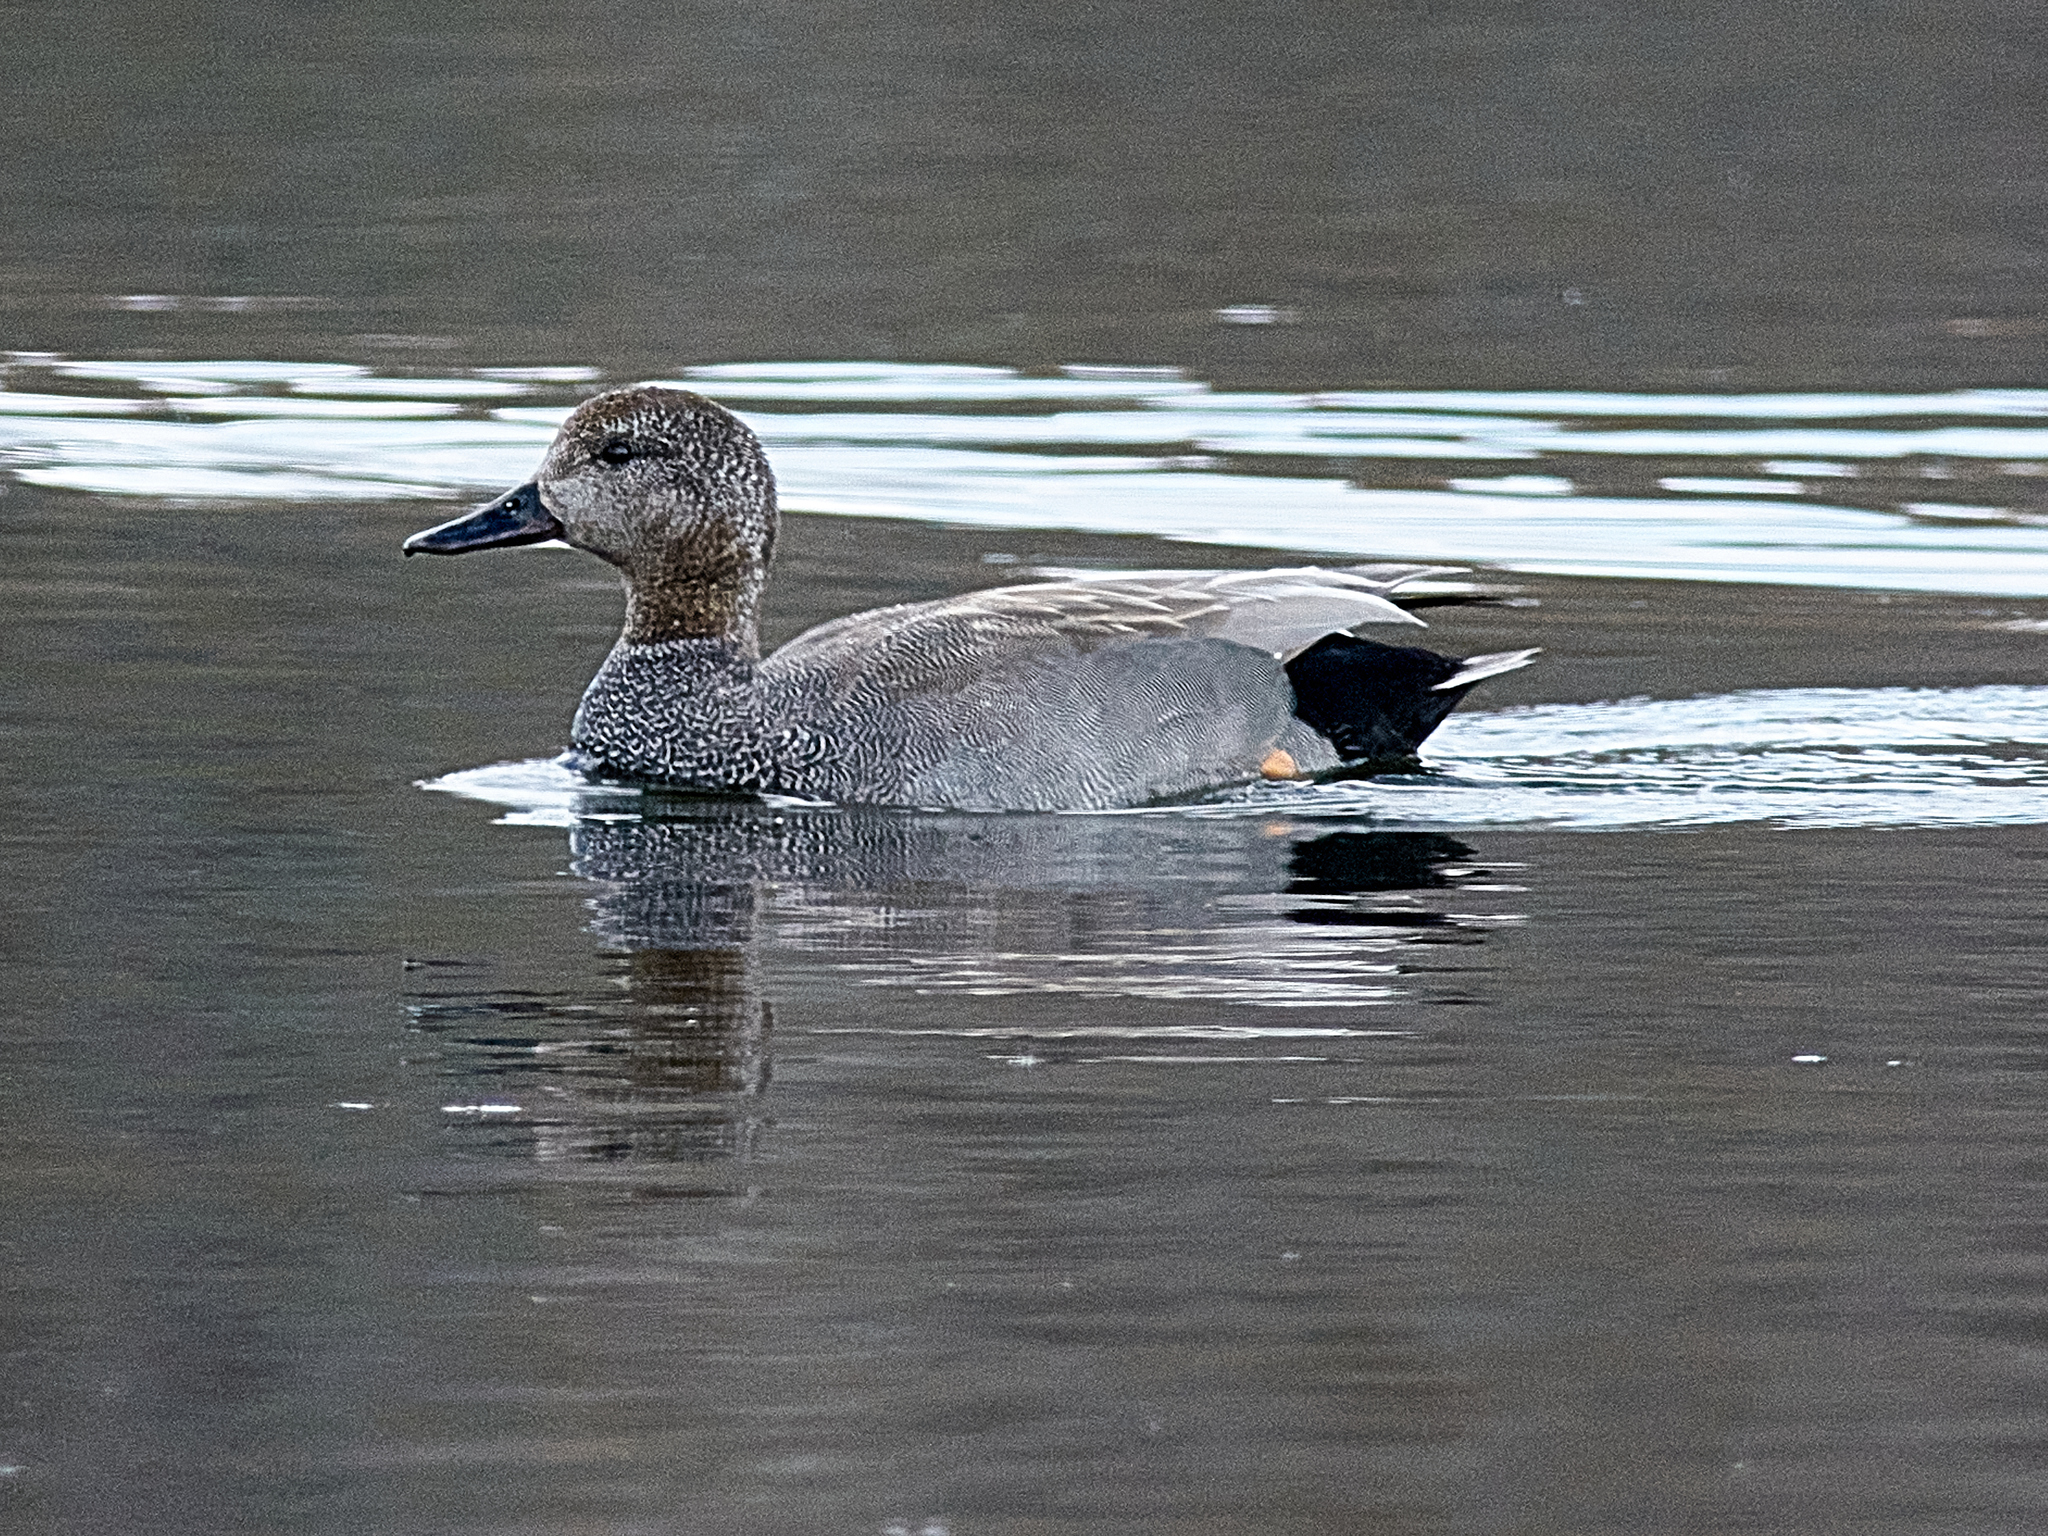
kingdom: Animalia
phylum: Chordata
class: Aves
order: Anseriformes
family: Anatidae
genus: Mareca
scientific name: Mareca strepera
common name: Gadwall
